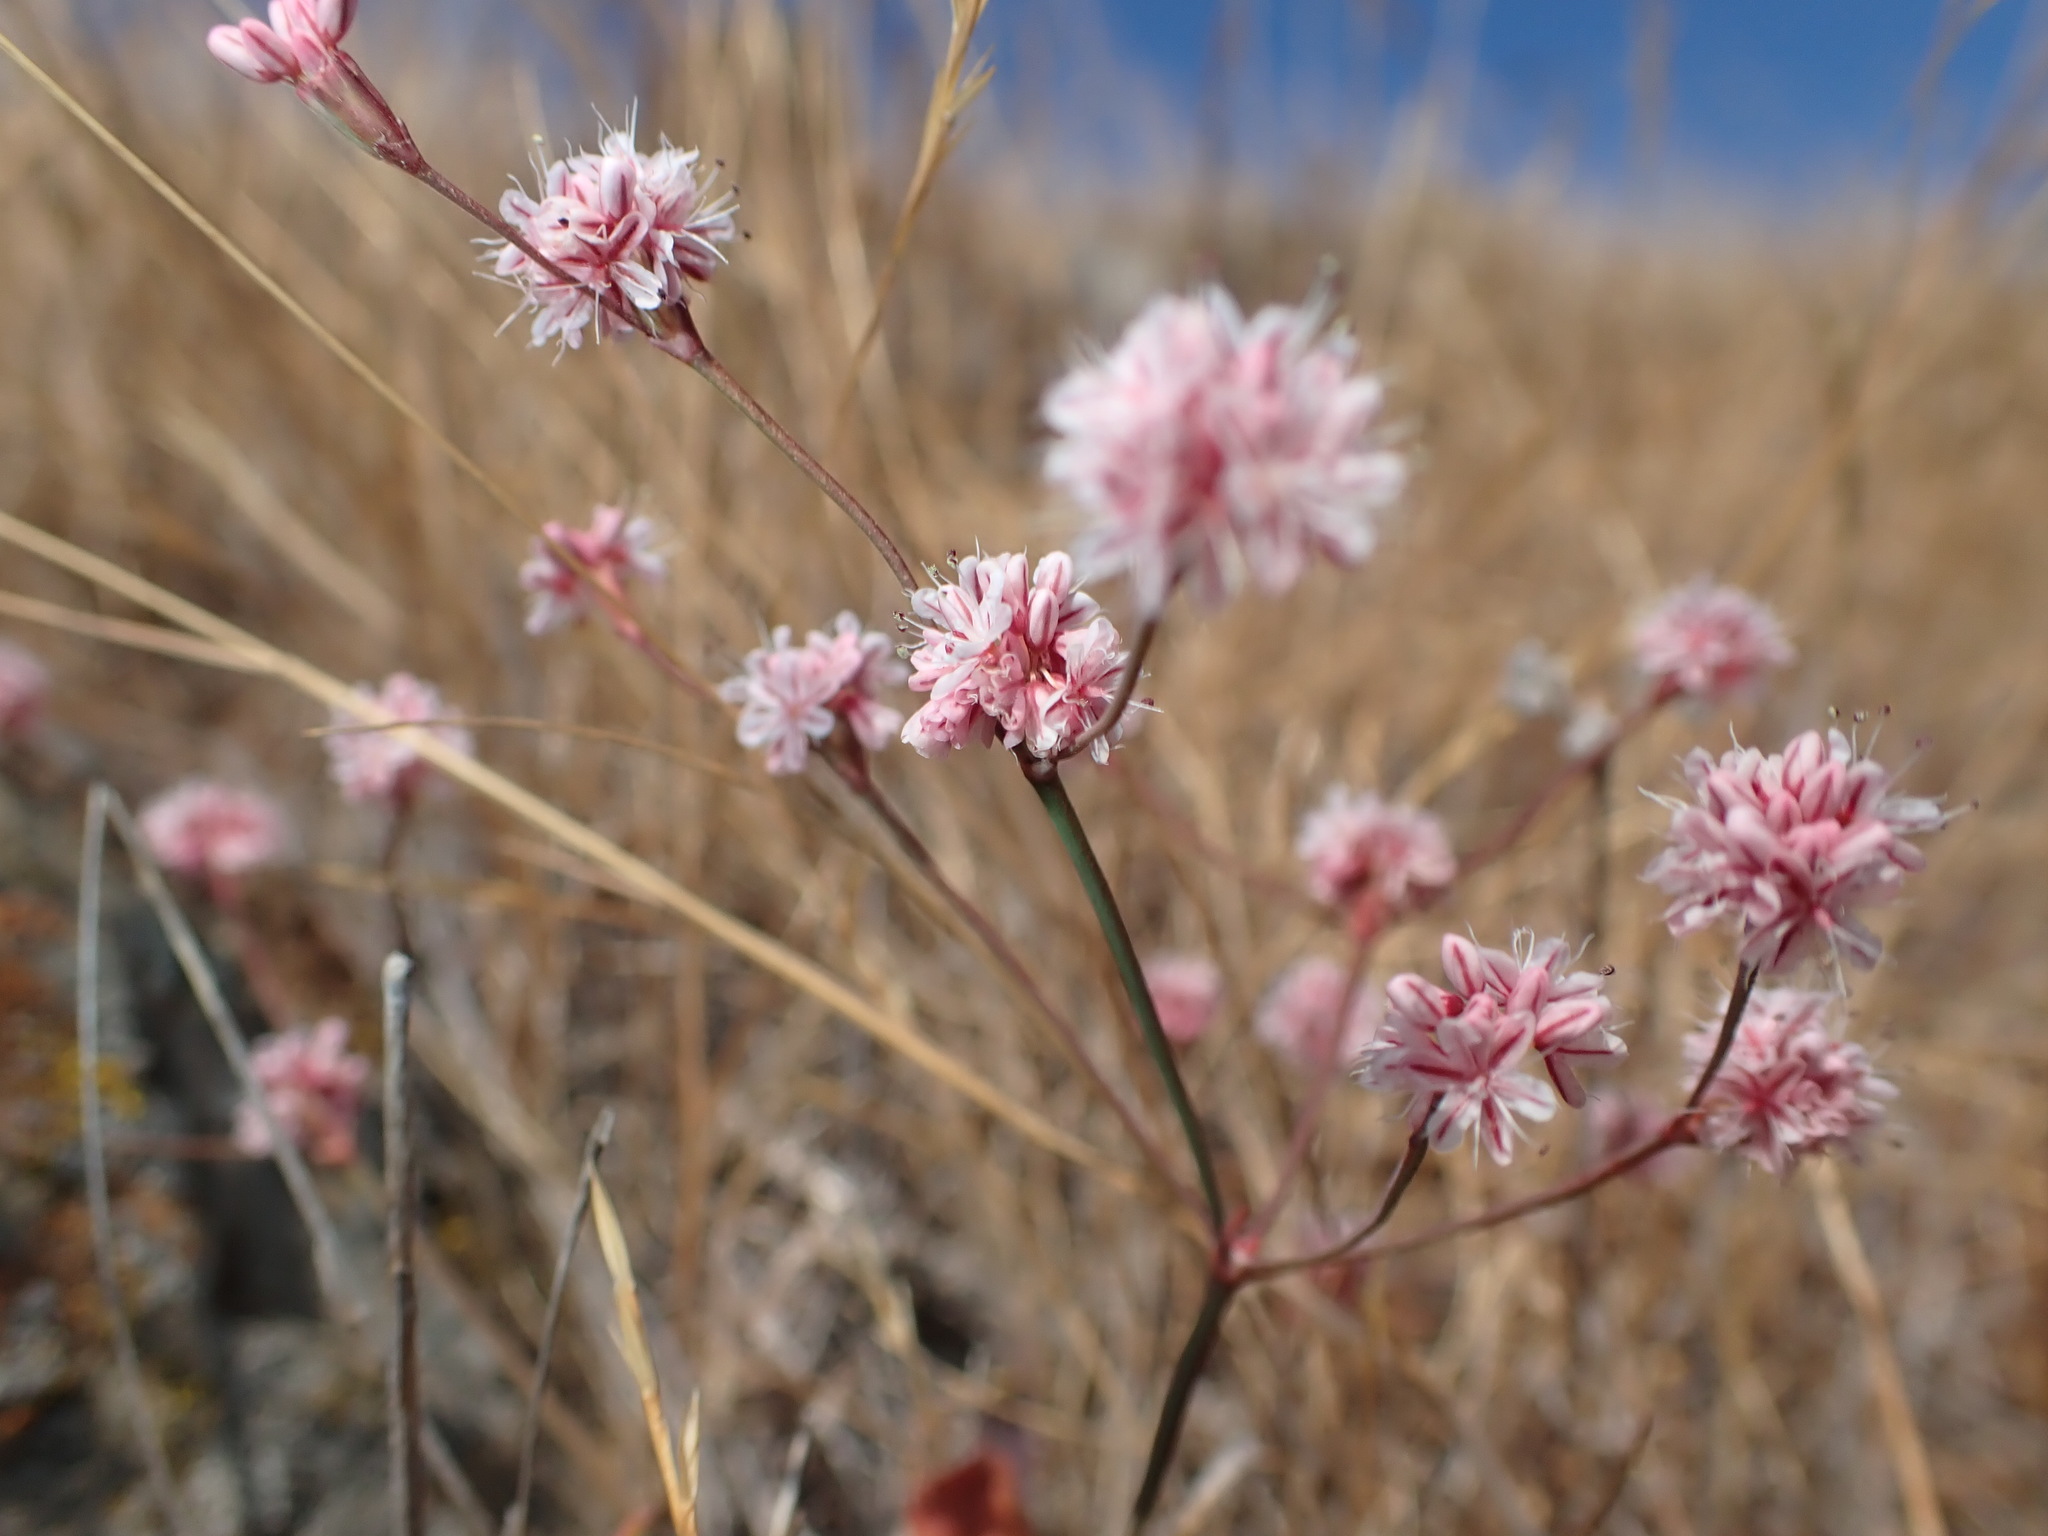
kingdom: Plantae
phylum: Tracheophyta
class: Magnoliopsida
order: Caryophyllales
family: Polygonaceae
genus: Eriogonum
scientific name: Eriogonum luteolum
